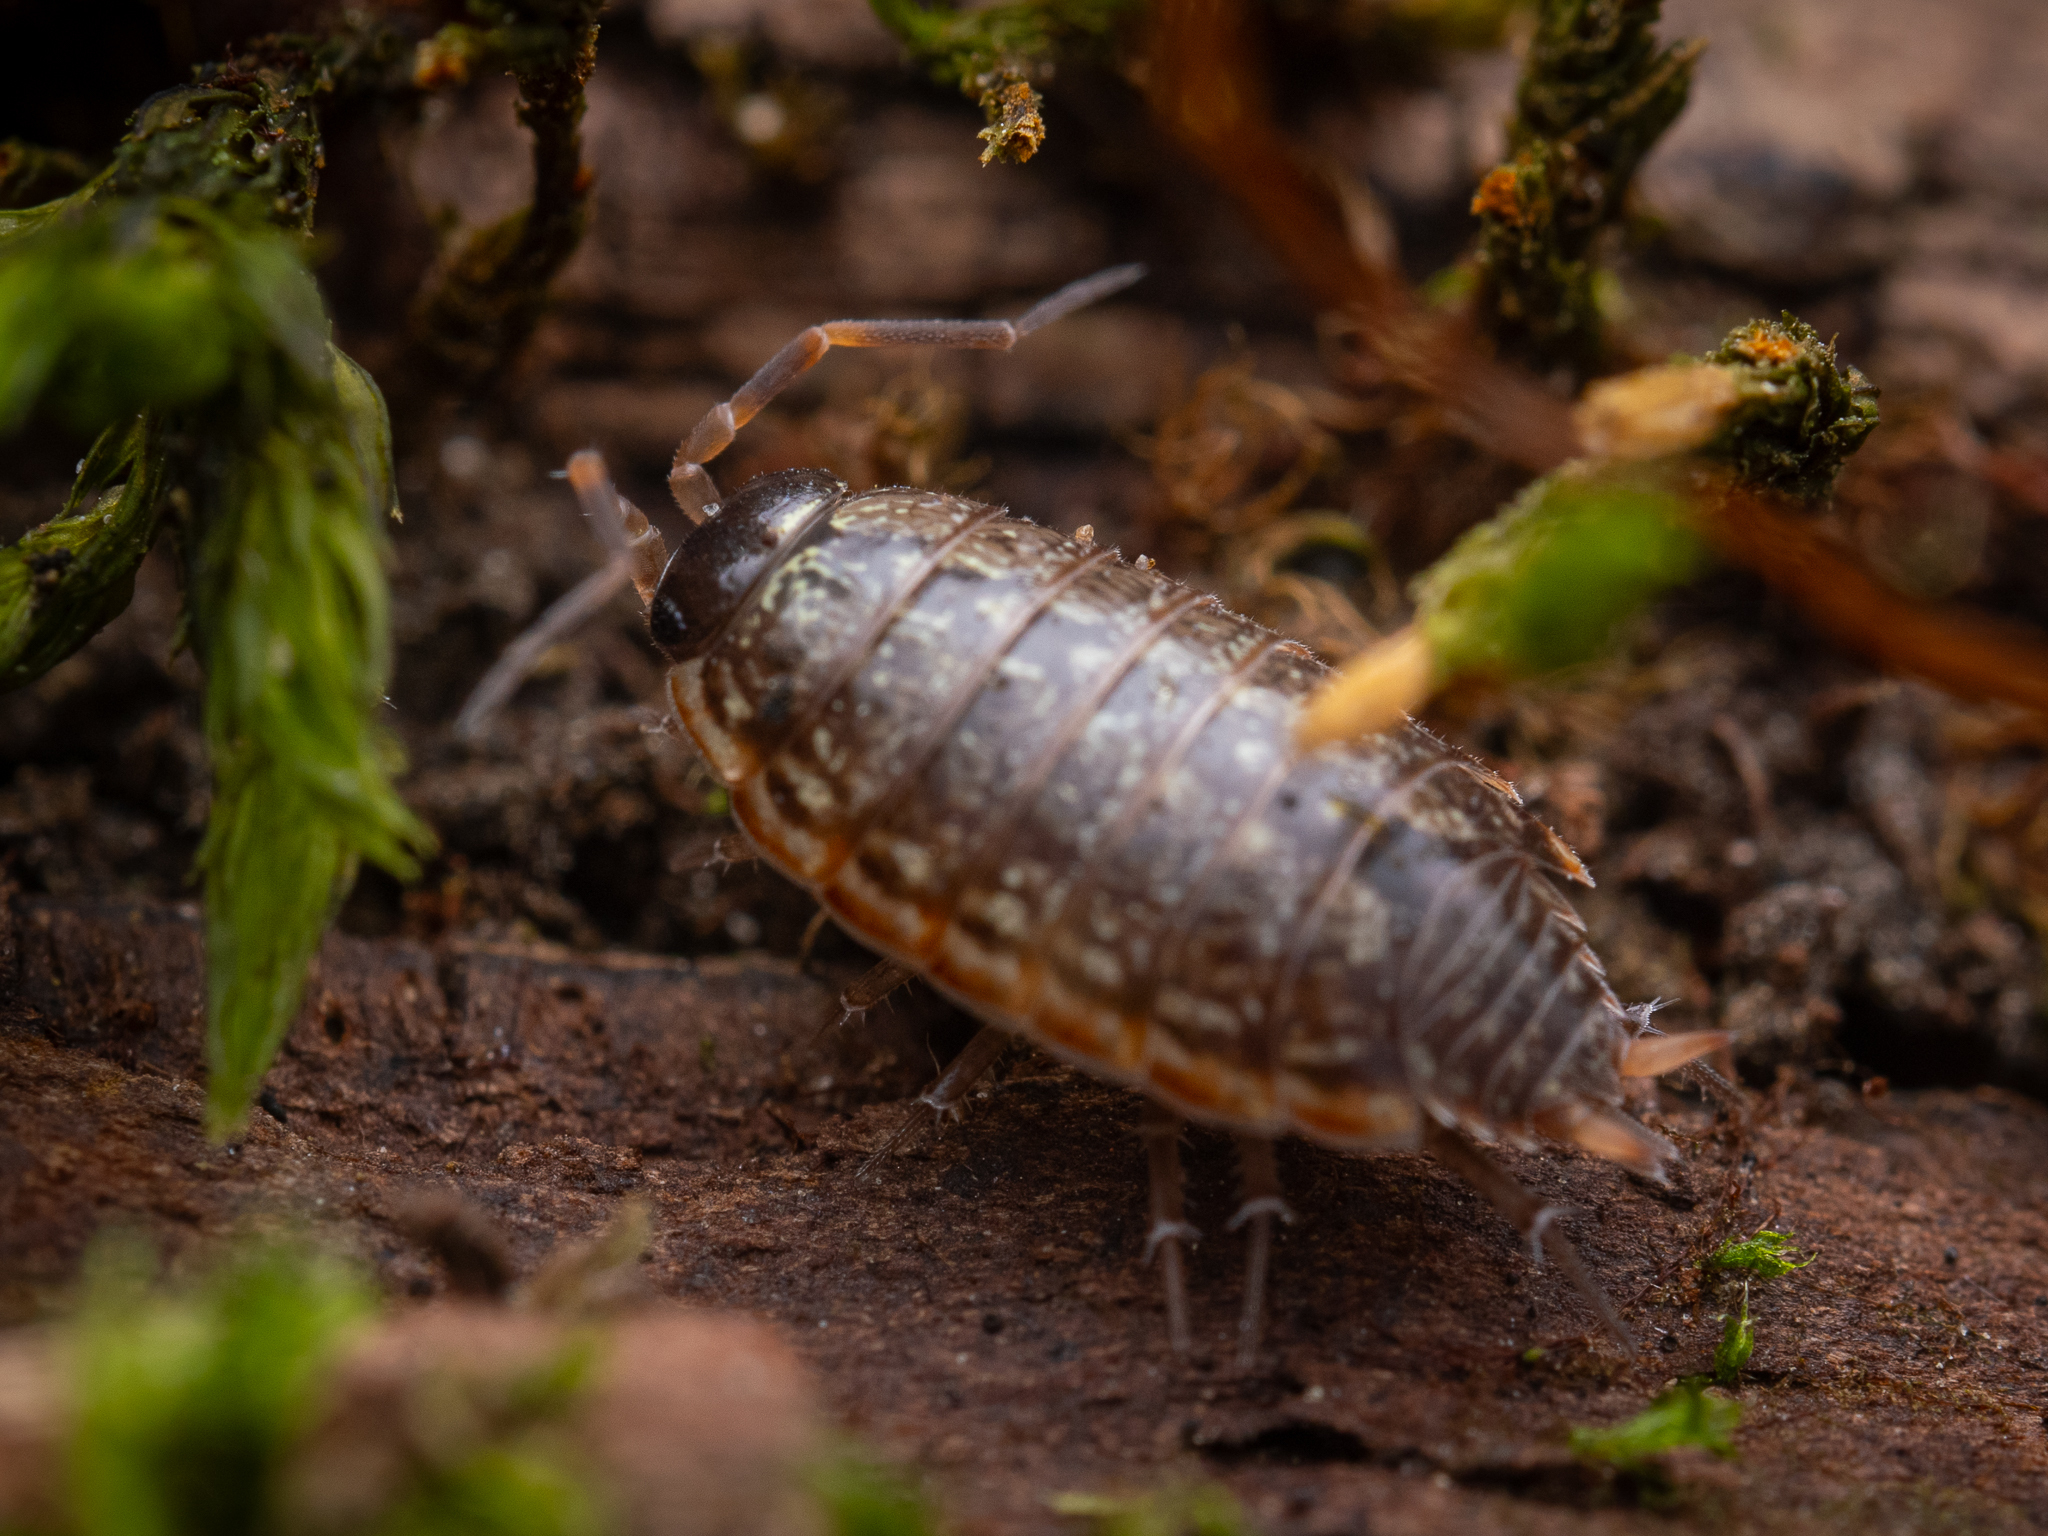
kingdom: Animalia
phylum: Arthropoda
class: Malacostraca
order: Isopoda
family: Philosciidae
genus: Philoscia
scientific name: Philoscia muscorum
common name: Common striped woodlouse
